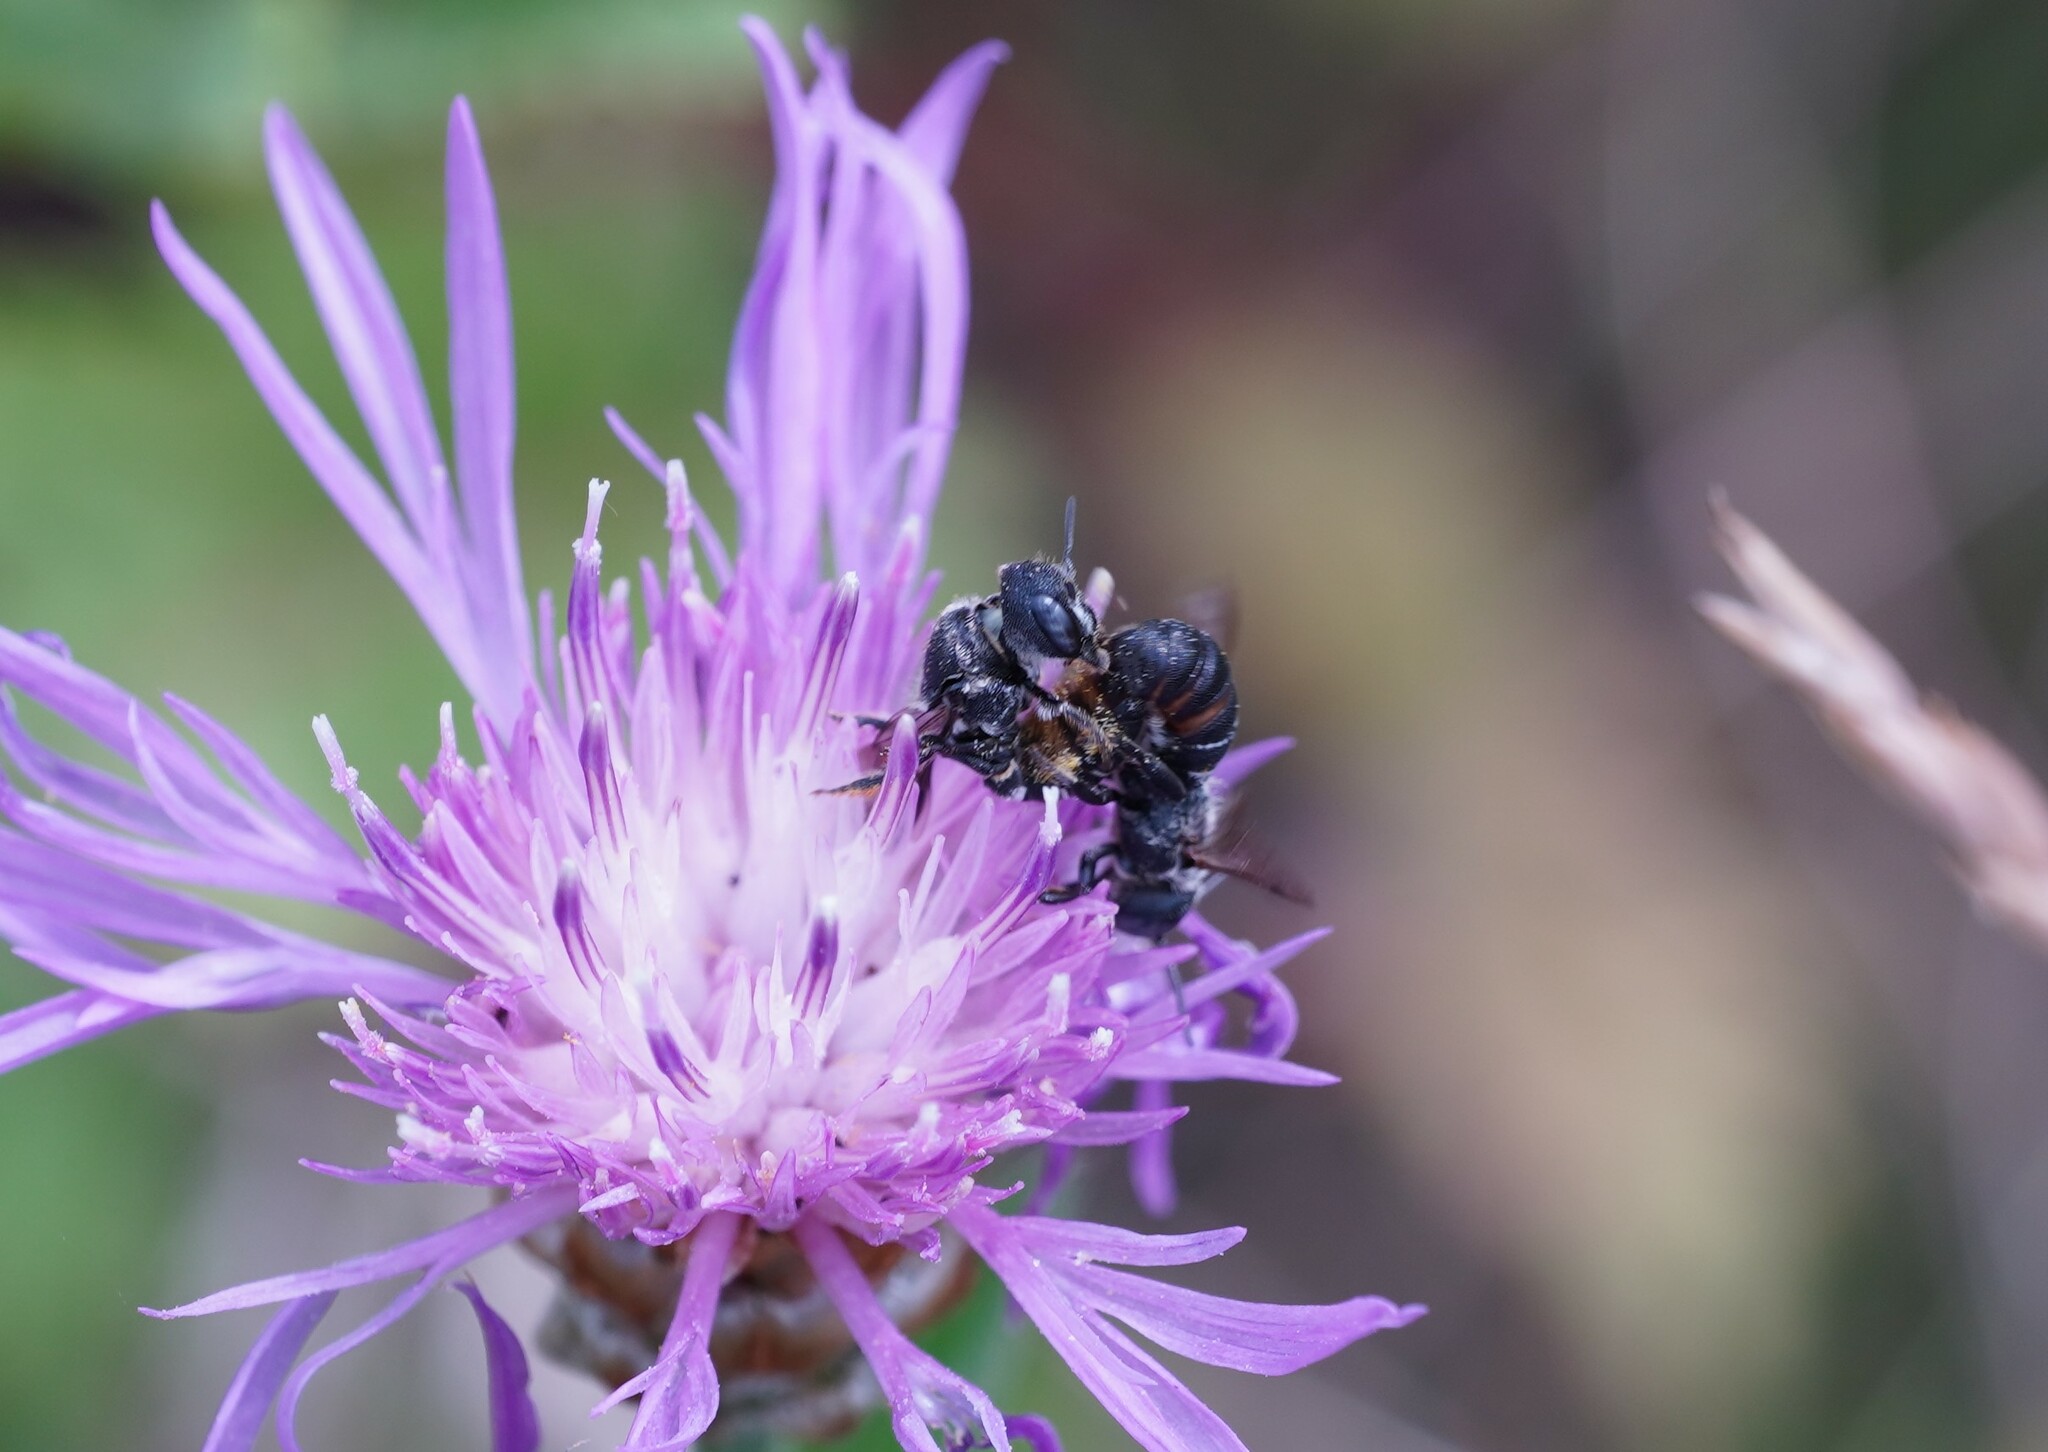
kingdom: Animalia
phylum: Arthropoda
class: Insecta
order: Hymenoptera
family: Megachilidae
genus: Heriades
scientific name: Heriades crenulata
